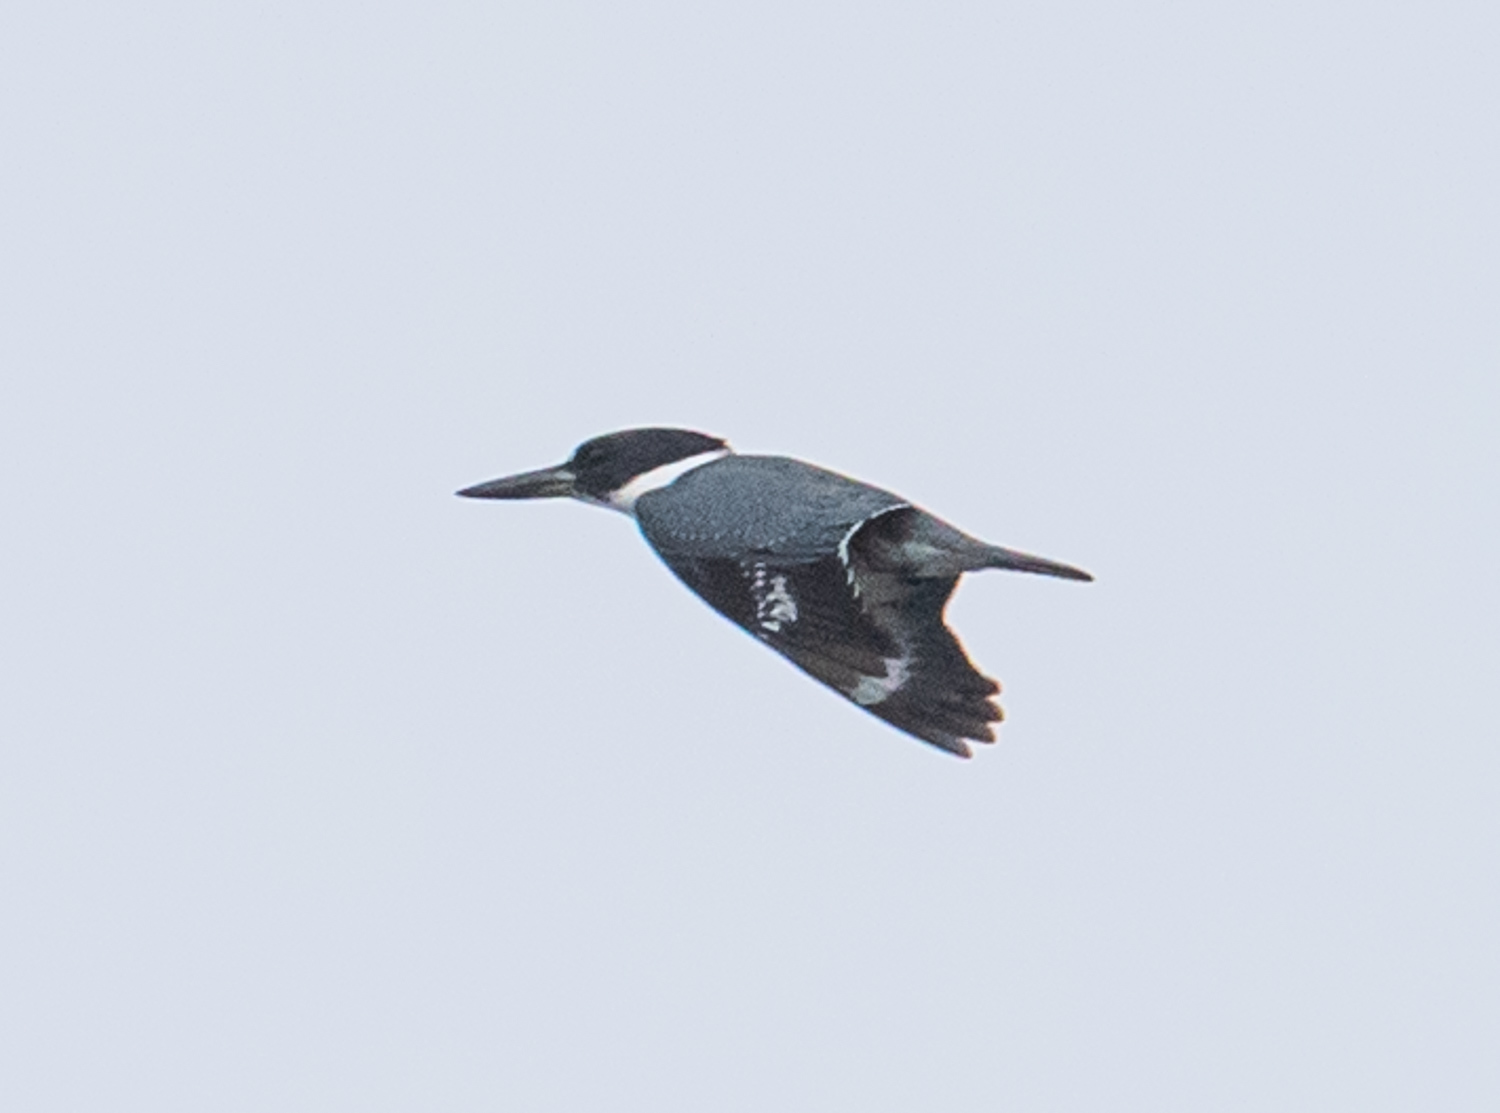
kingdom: Animalia
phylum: Chordata
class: Aves
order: Coraciiformes
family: Alcedinidae
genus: Megaceryle
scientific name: Megaceryle alcyon
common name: Belted kingfisher
